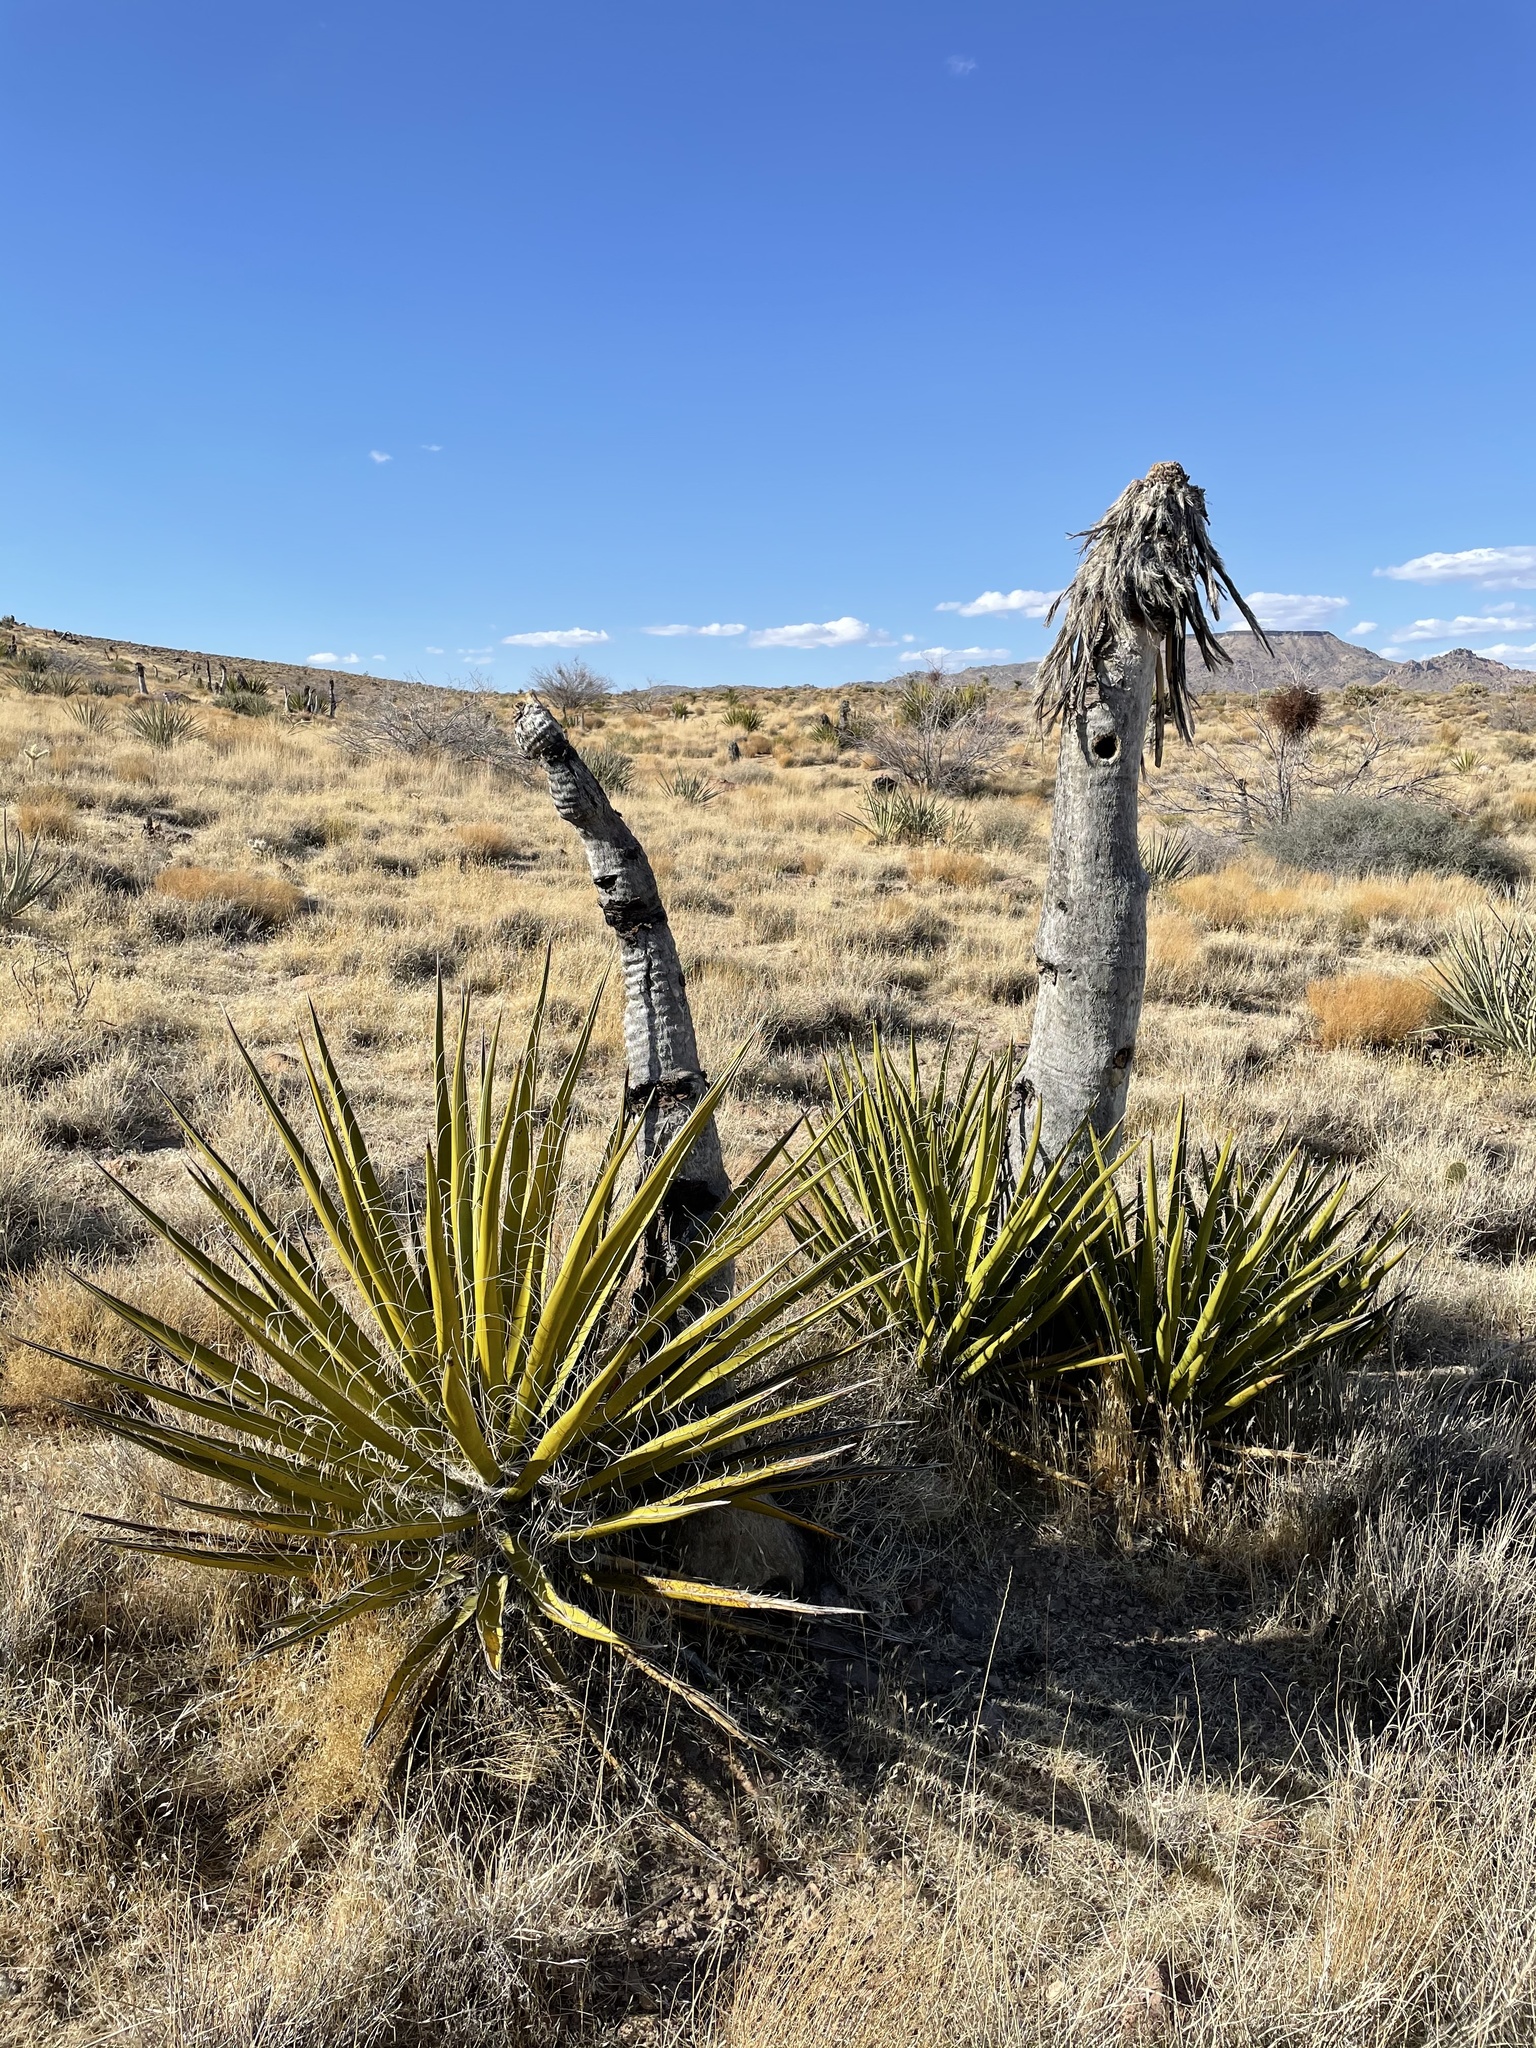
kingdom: Plantae
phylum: Tracheophyta
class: Liliopsida
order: Asparagales
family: Asparagaceae
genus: Yucca
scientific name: Yucca schidigera
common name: Mojave yucca
